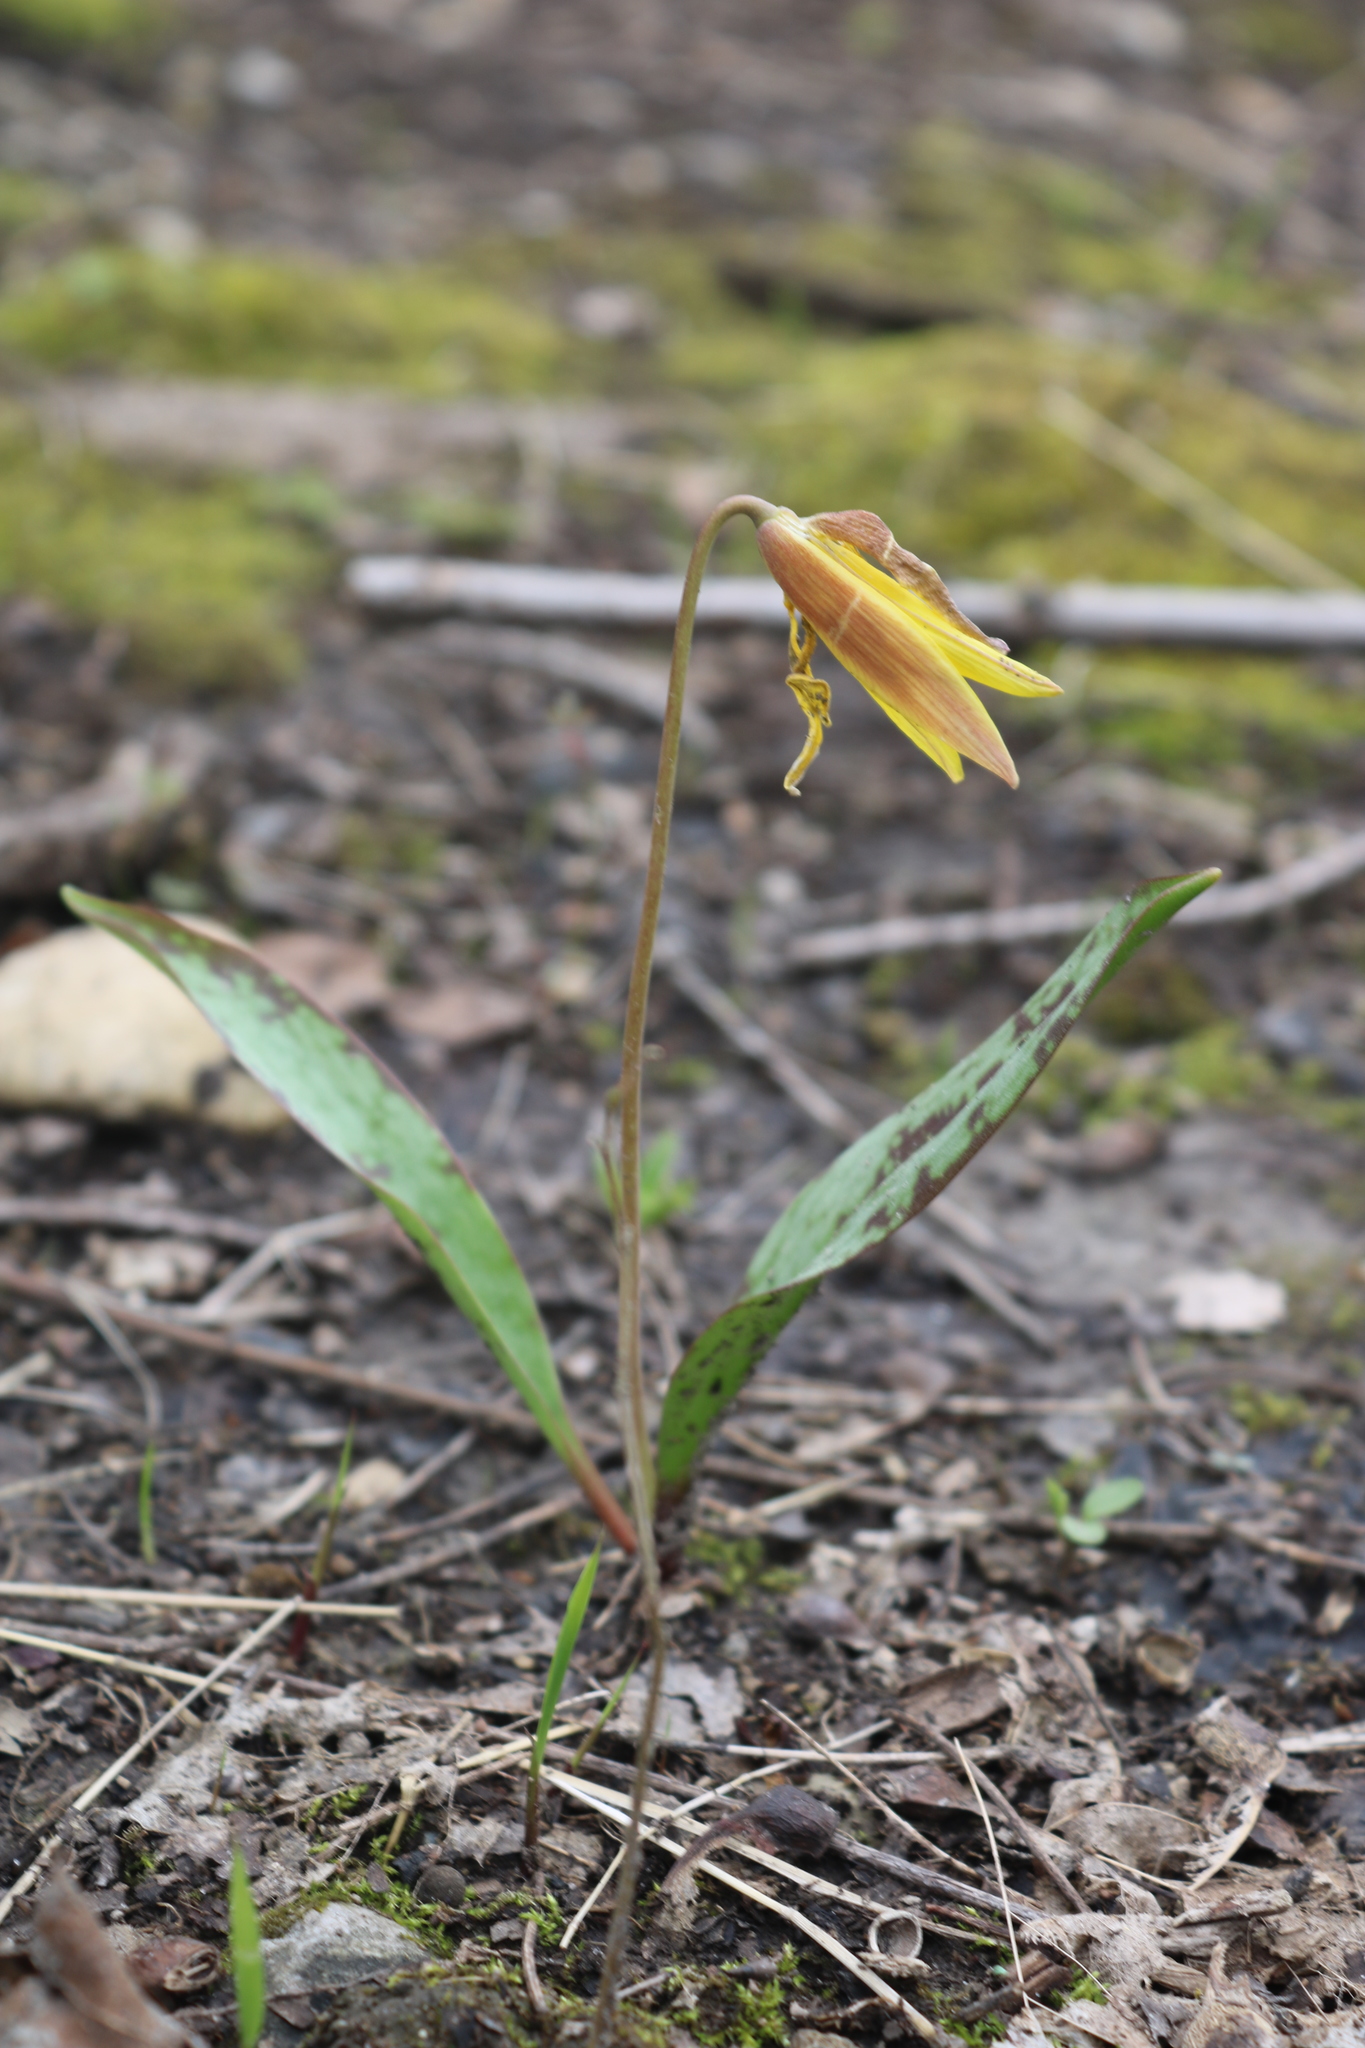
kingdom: Plantae
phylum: Tracheophyta
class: Liliopsida
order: Liliales
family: Liliaceae
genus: Erythronium
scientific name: Erythronium americanum
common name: Yellow adder's-tongue
